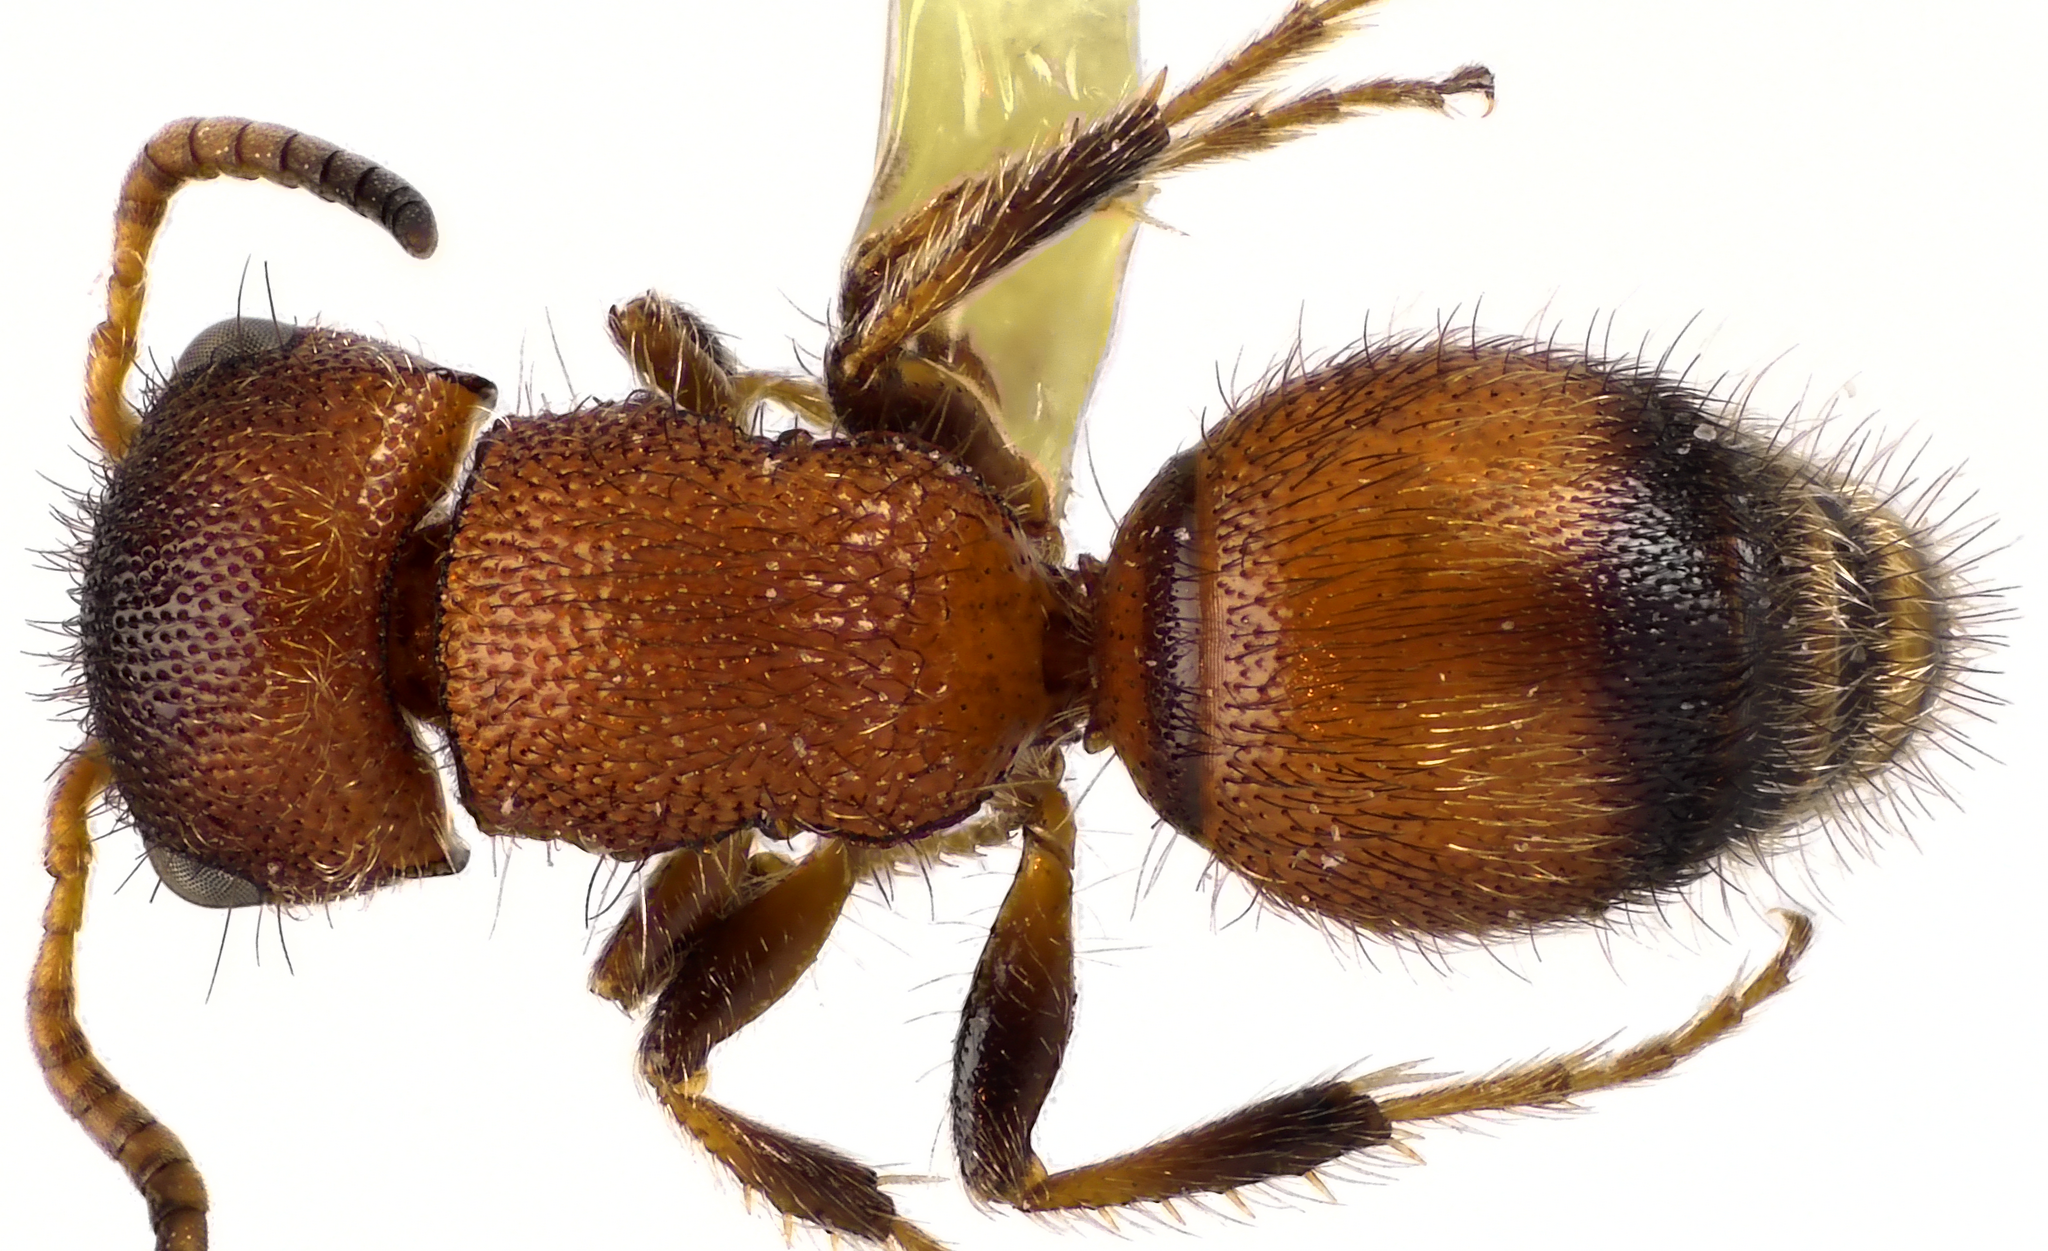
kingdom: Animalia
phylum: Arthropoda
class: Insecta
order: Hymenoptera
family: Mutillidae
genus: Pseudomethoca
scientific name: Pseudomethoca
